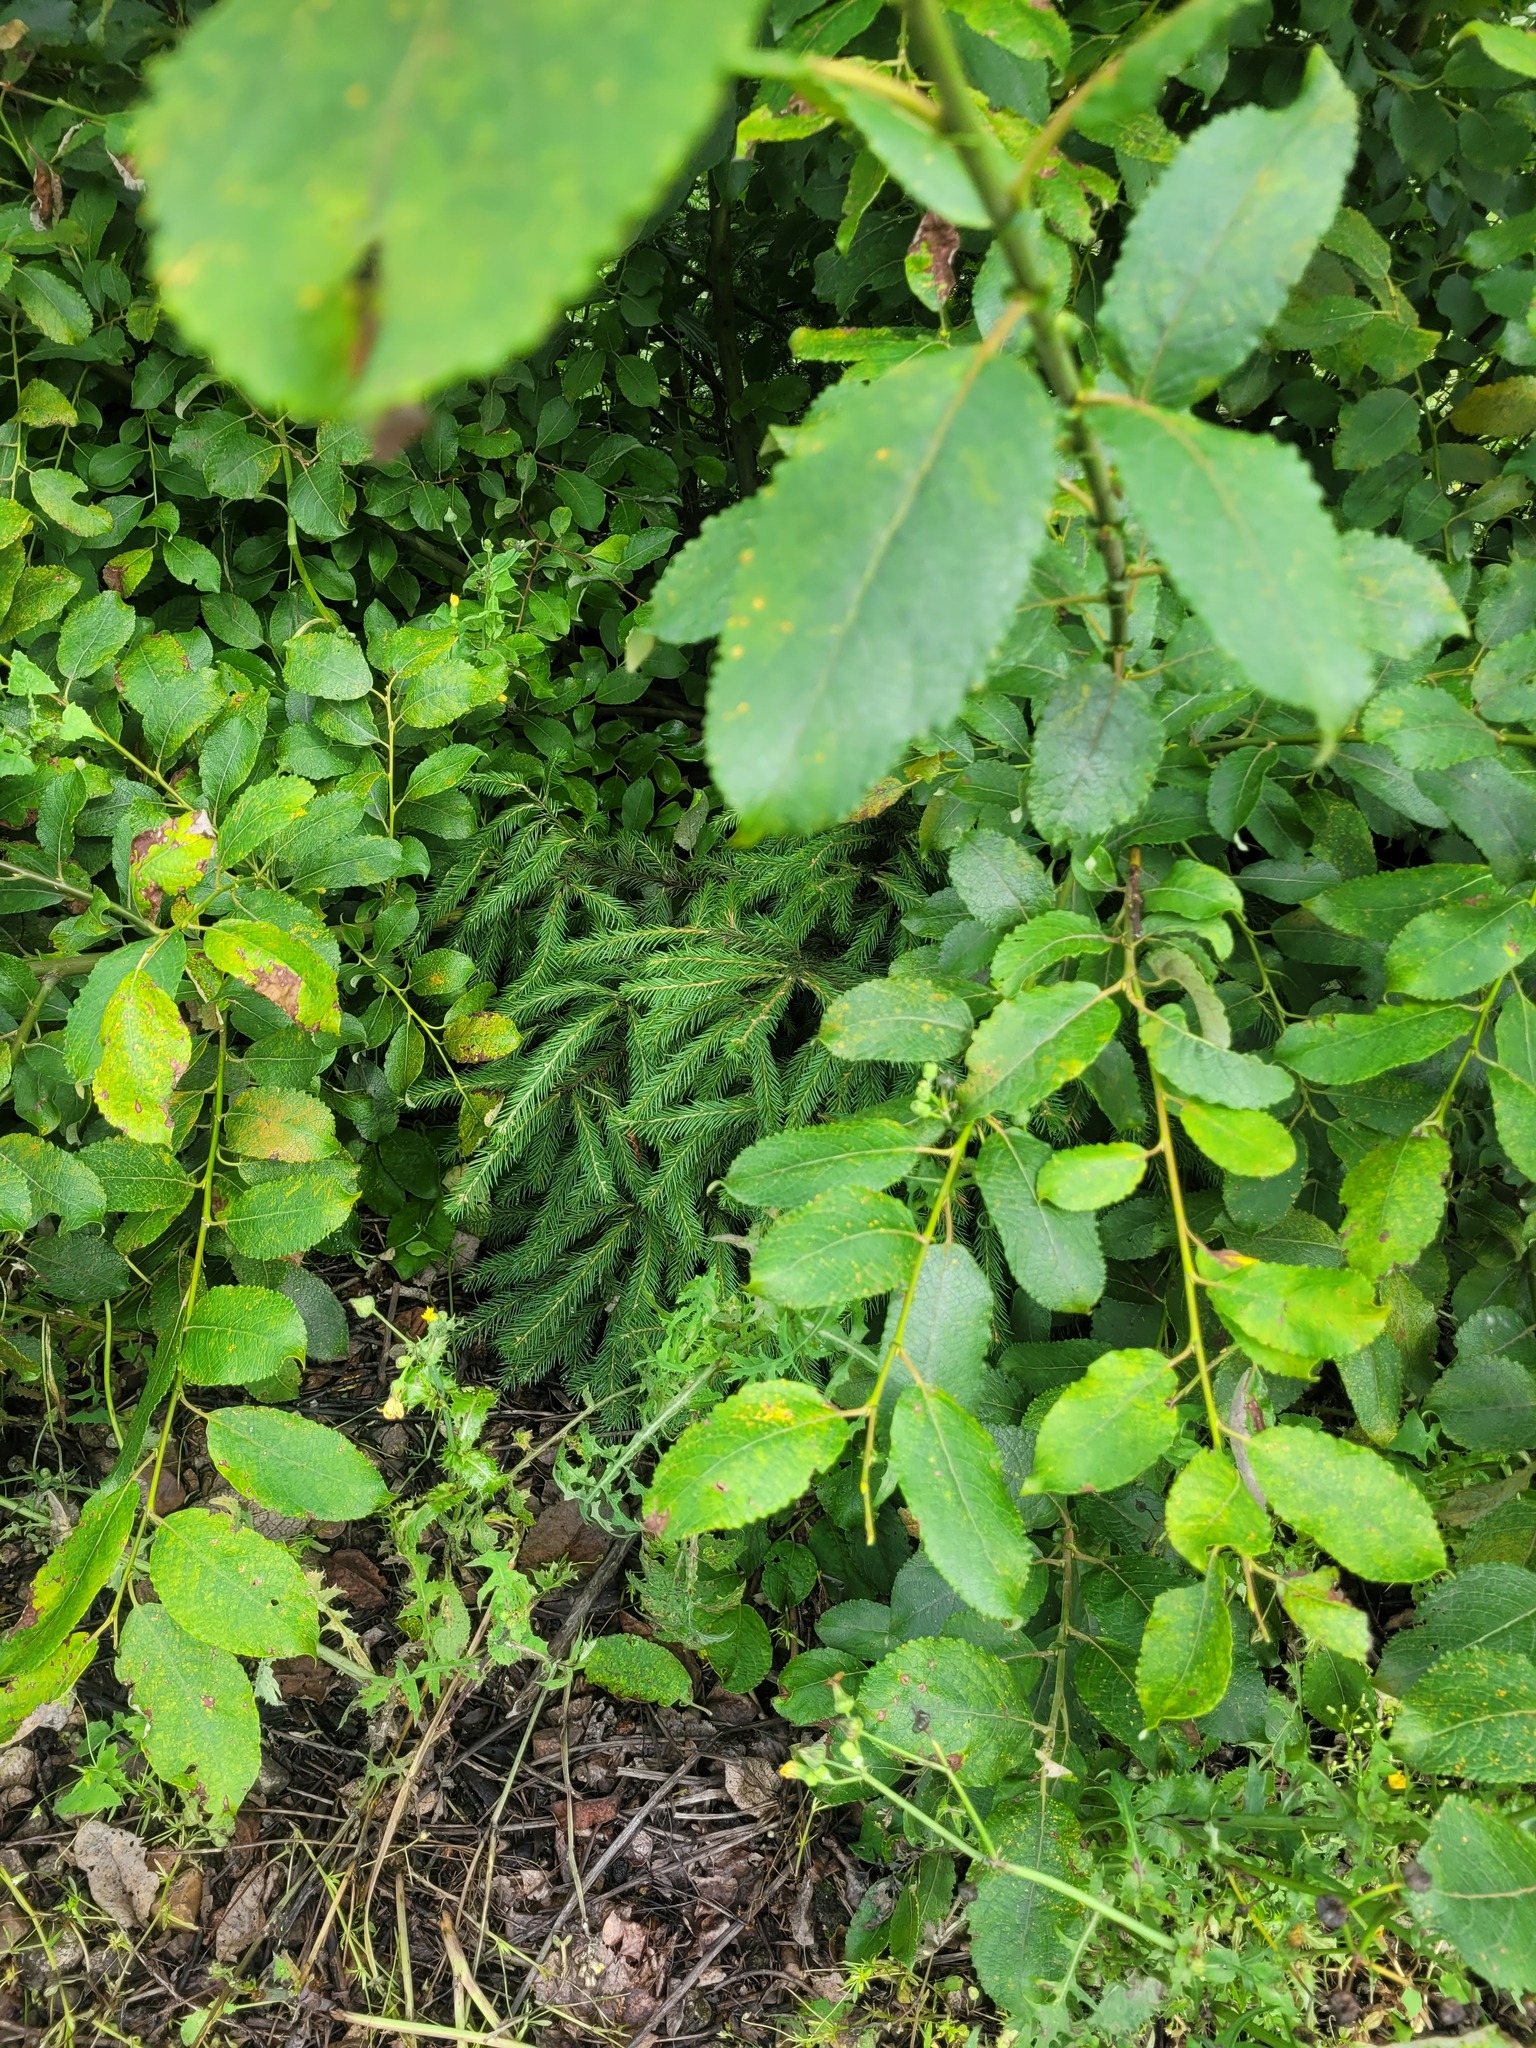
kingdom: Plantae
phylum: Tracheophyta
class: Pinopsida
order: Pinales
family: Pinaceae
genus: Picea
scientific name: Picea abies
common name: Norway spruce
